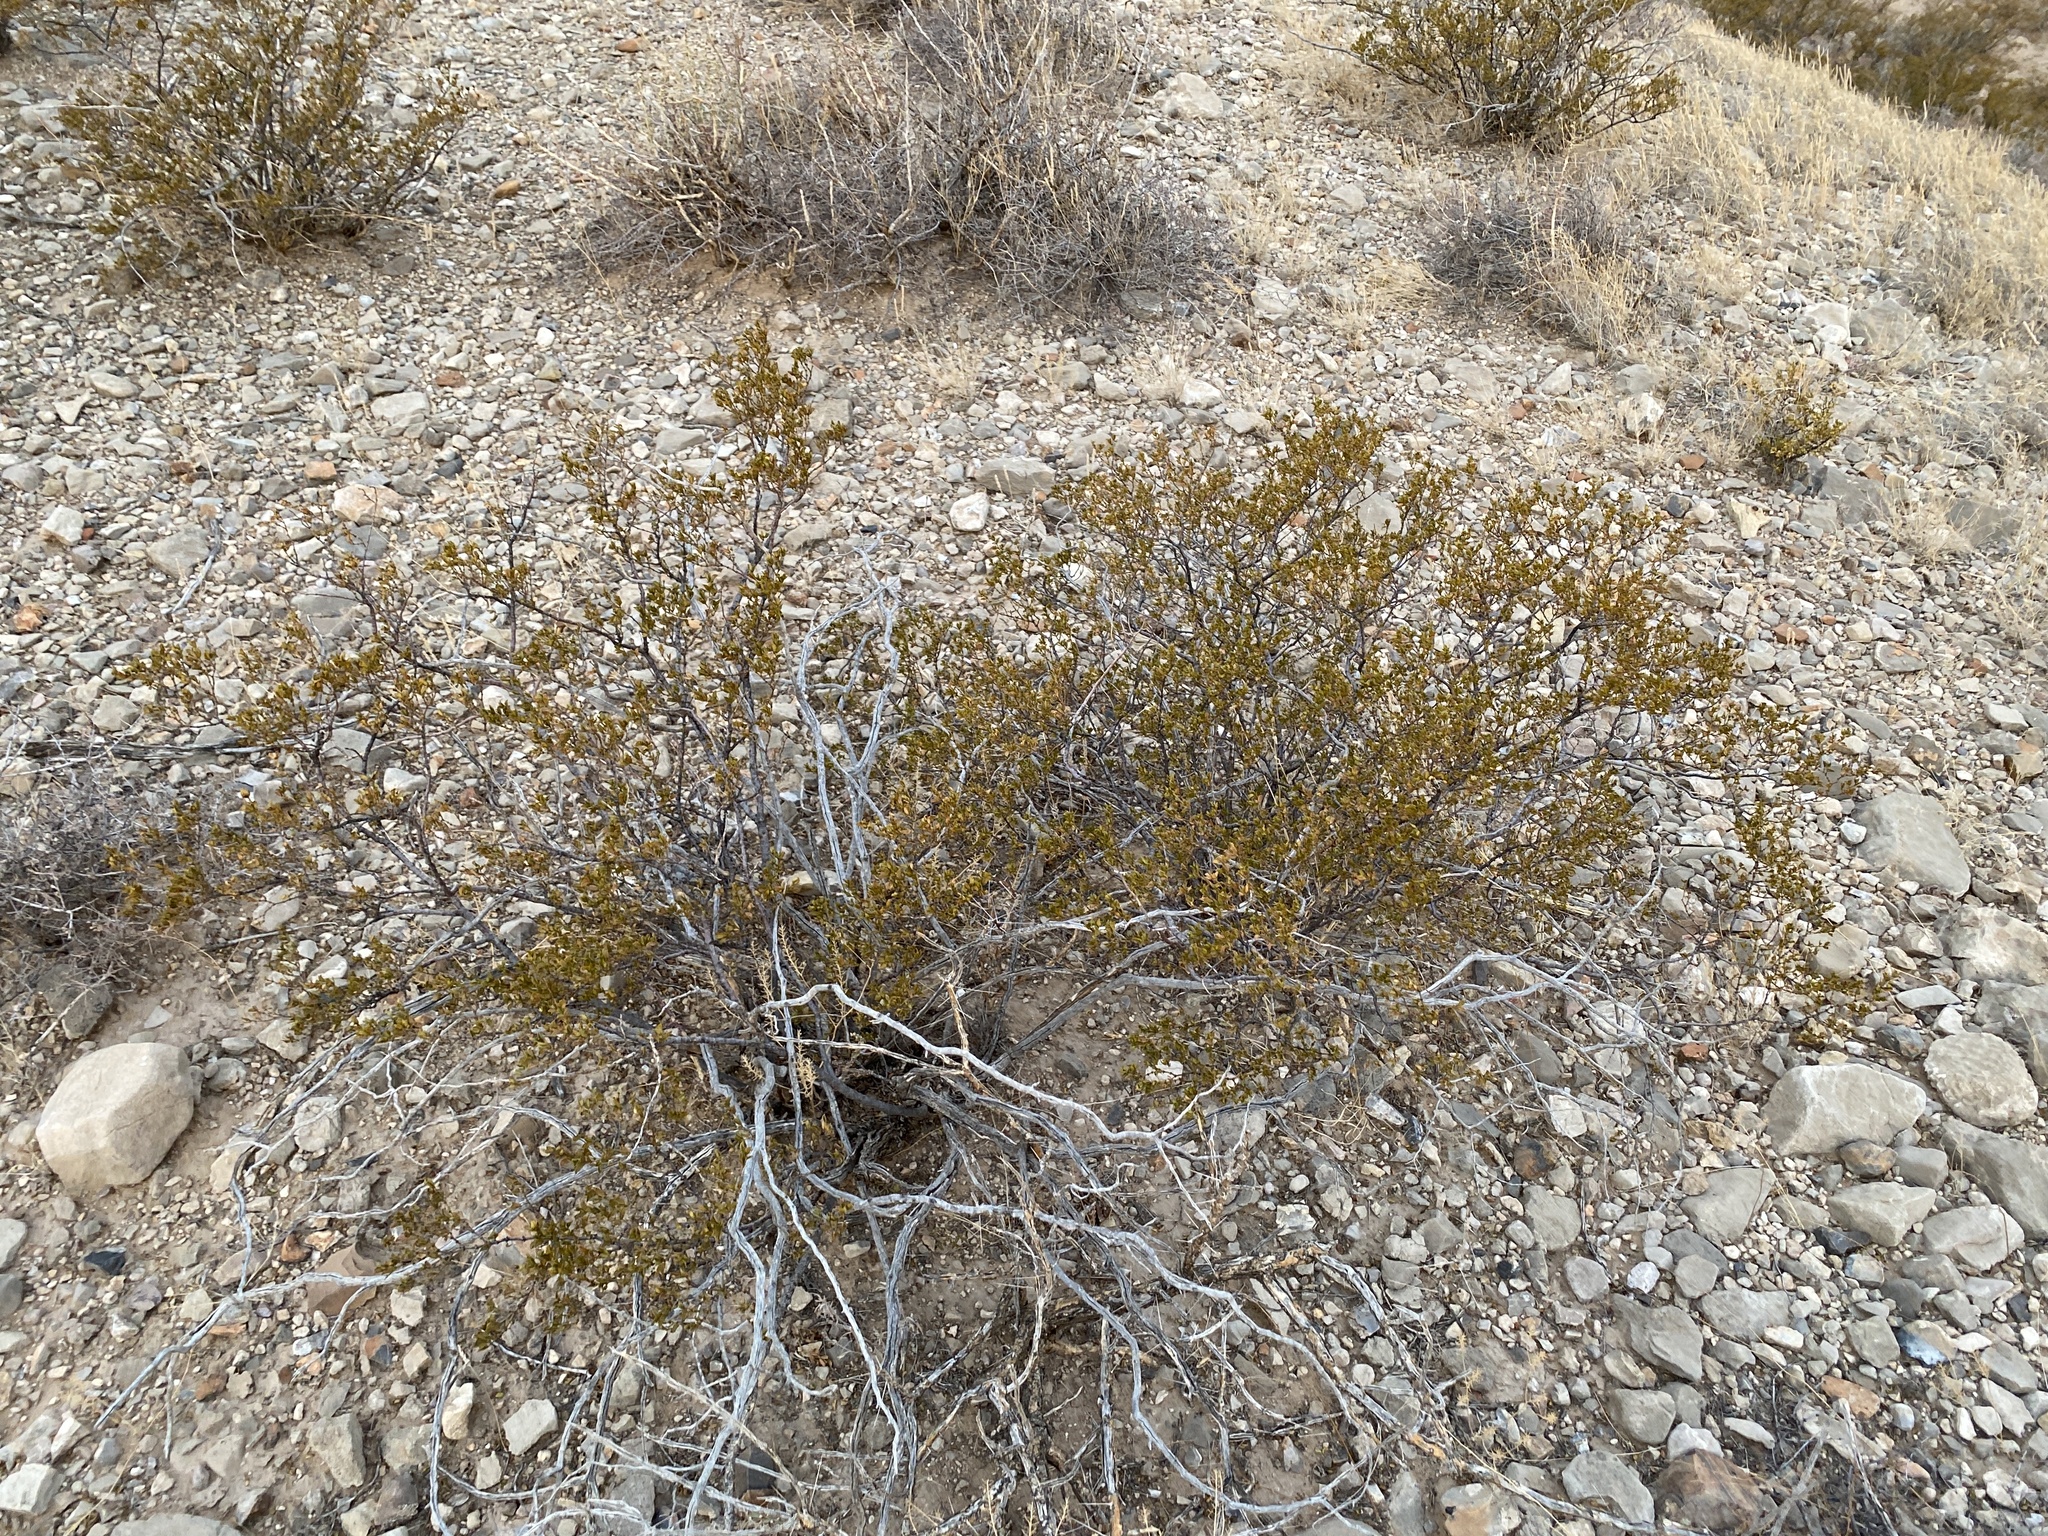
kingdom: Plantae
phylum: Tracheophyta
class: Magnoliopsida
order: Zygophyllales
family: Zygophyllaceae
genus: Larrea
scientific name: Larrea tridentata
